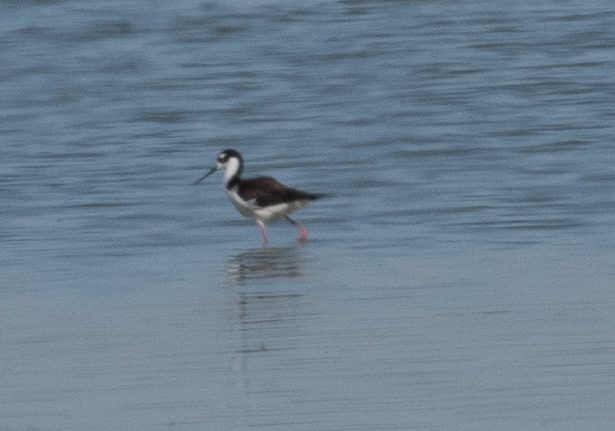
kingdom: Animalia
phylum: Chordata
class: Aves
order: Charadriiformes
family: Recurvirostridae
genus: Himantopus
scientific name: Himantopus mexicanus
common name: Black-necked stilt
